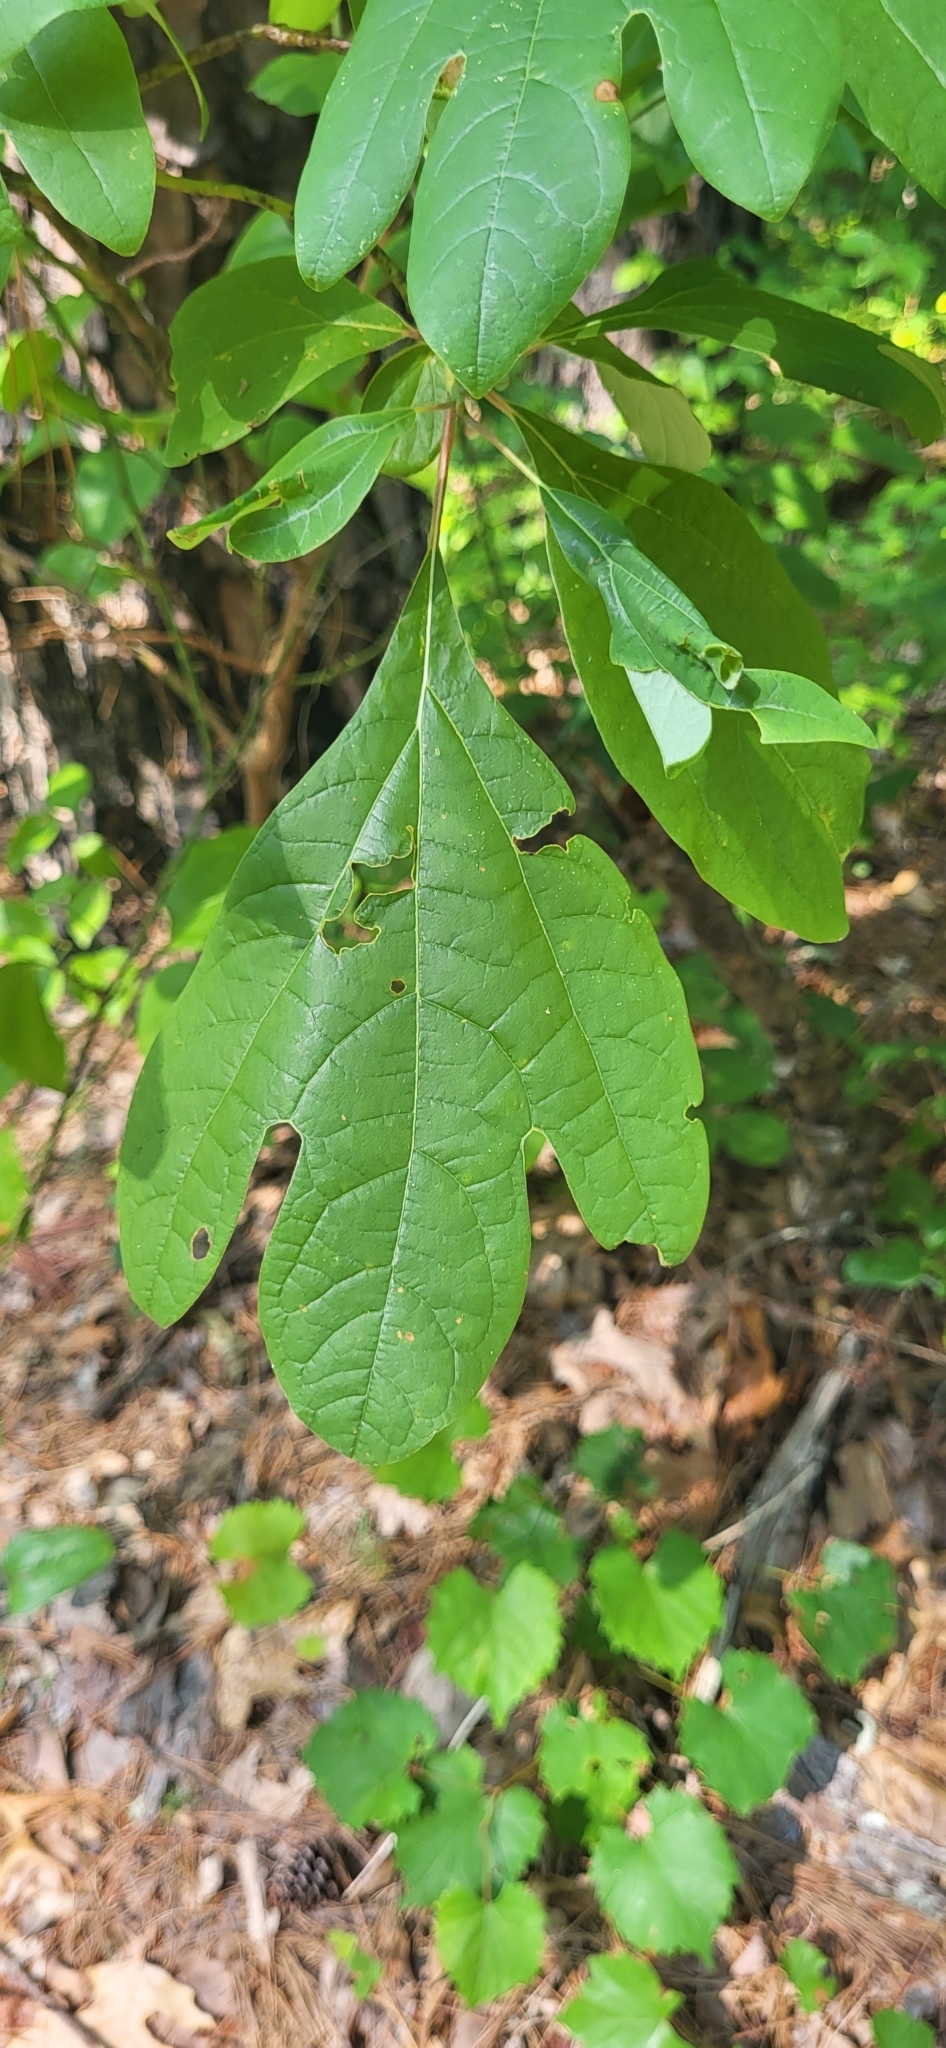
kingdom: Plantae
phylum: Tracheophyta
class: Magnoliopsida
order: Laurales
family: Lauraceae
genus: Sassafras
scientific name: Sassafras albidum
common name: Sassafras
